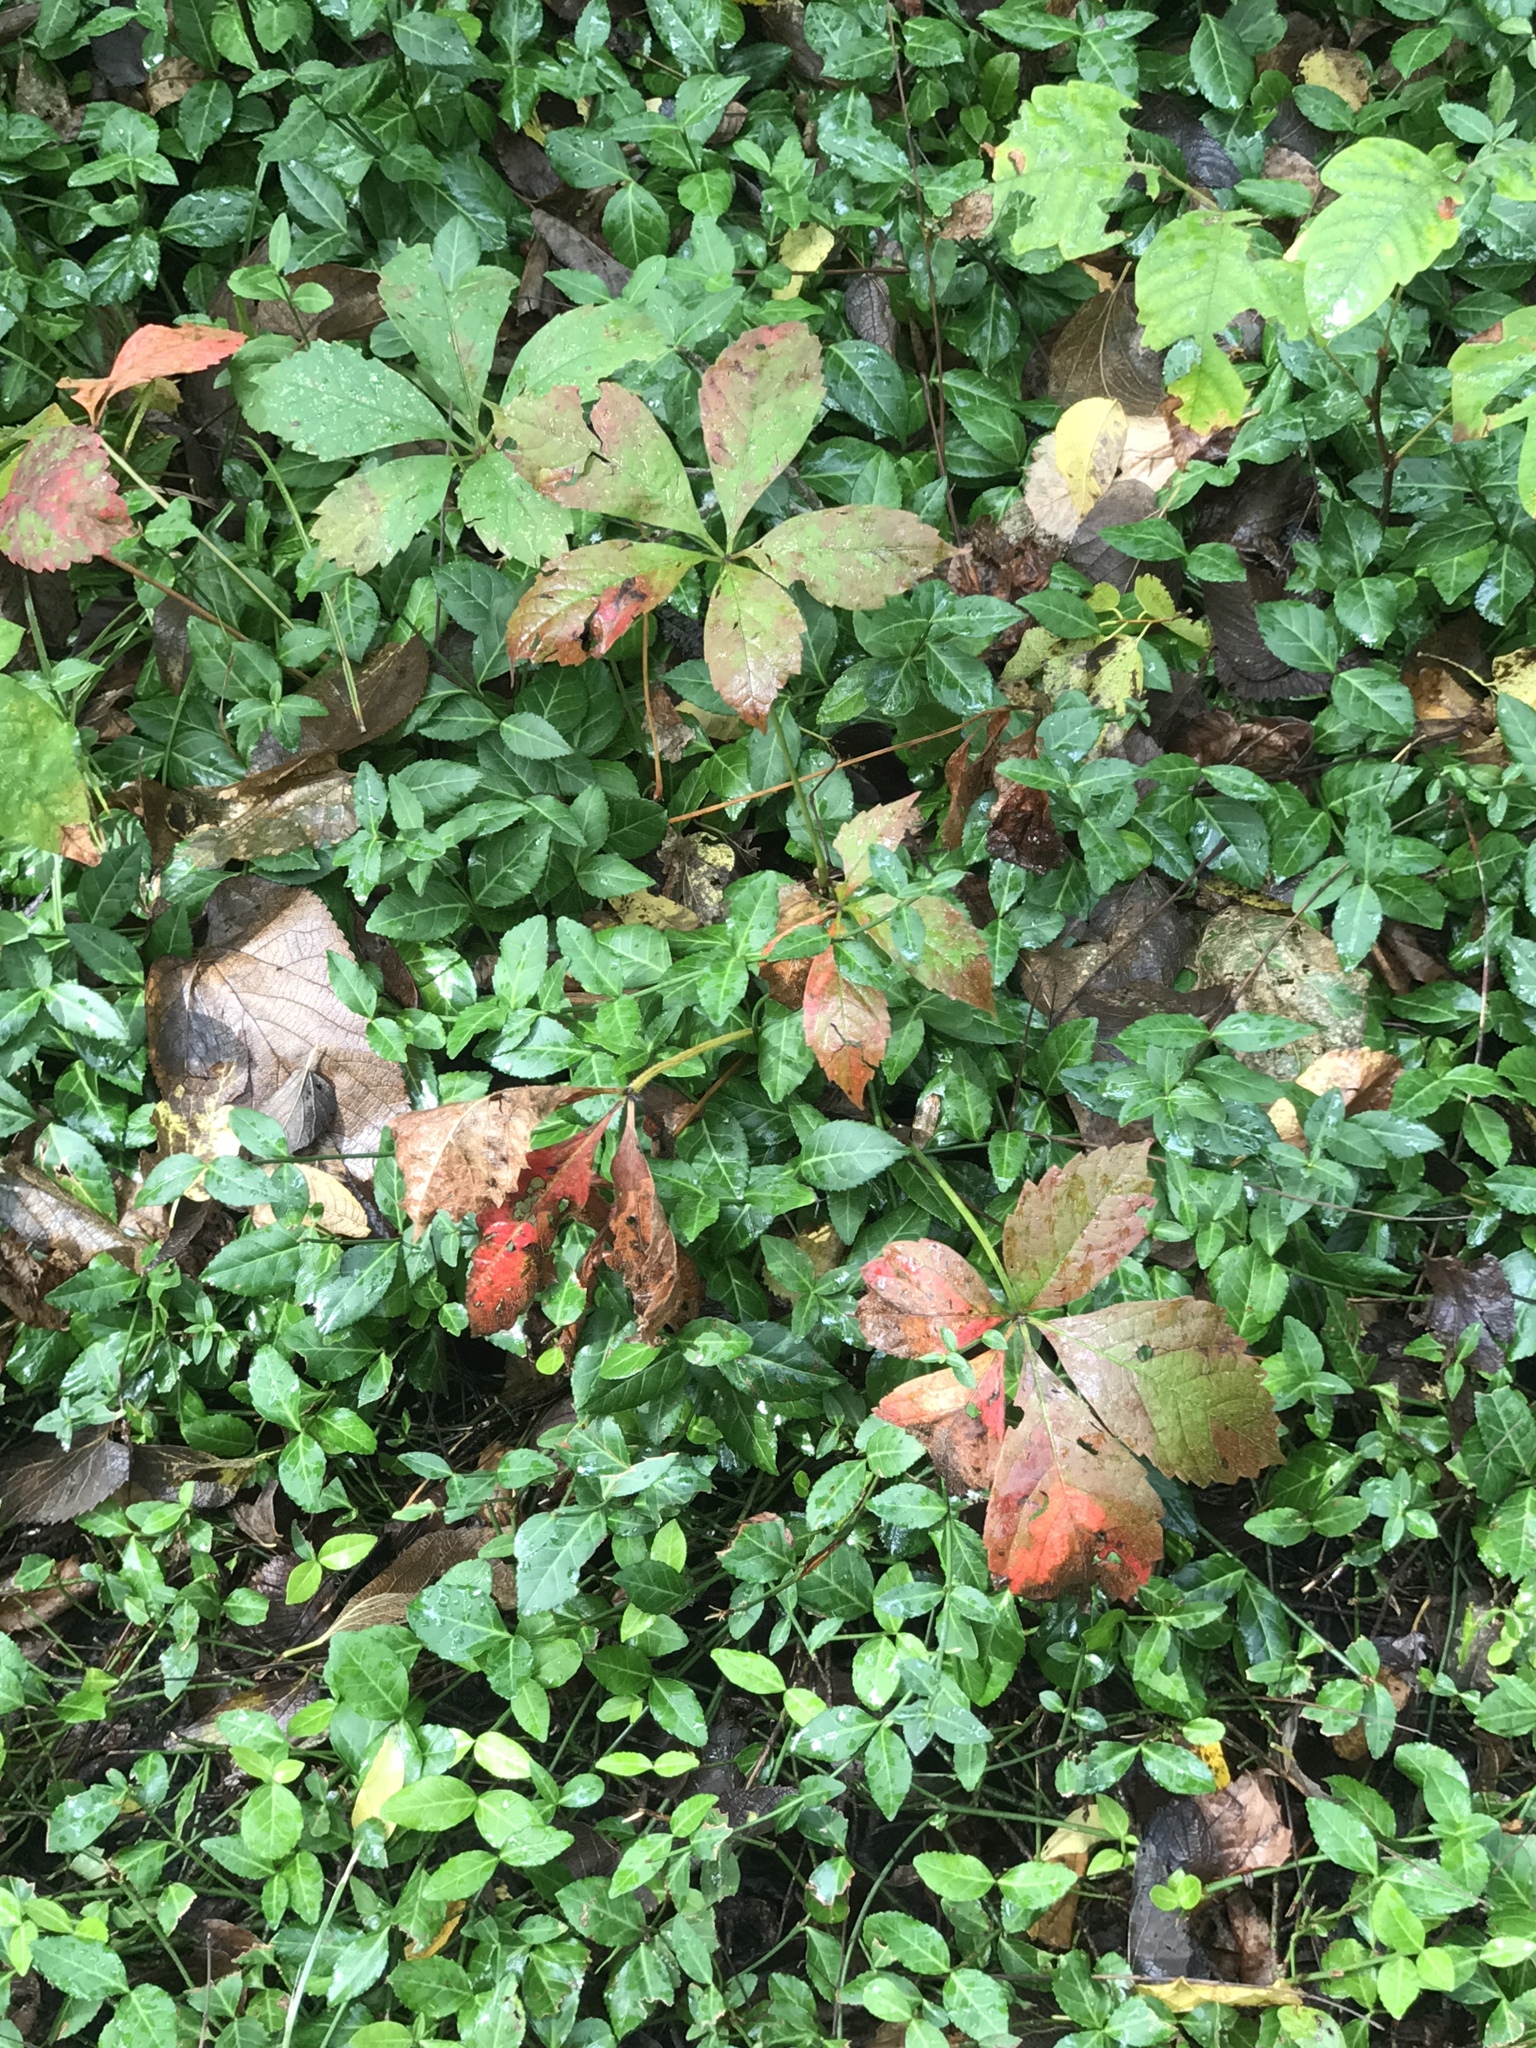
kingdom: Plantae
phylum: Tracheophyta
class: Magnoliopsida
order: Vitales
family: Vitaceae
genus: Parthenocissus
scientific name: Parthenocissus quinquefolia
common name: Virginia-creeper
